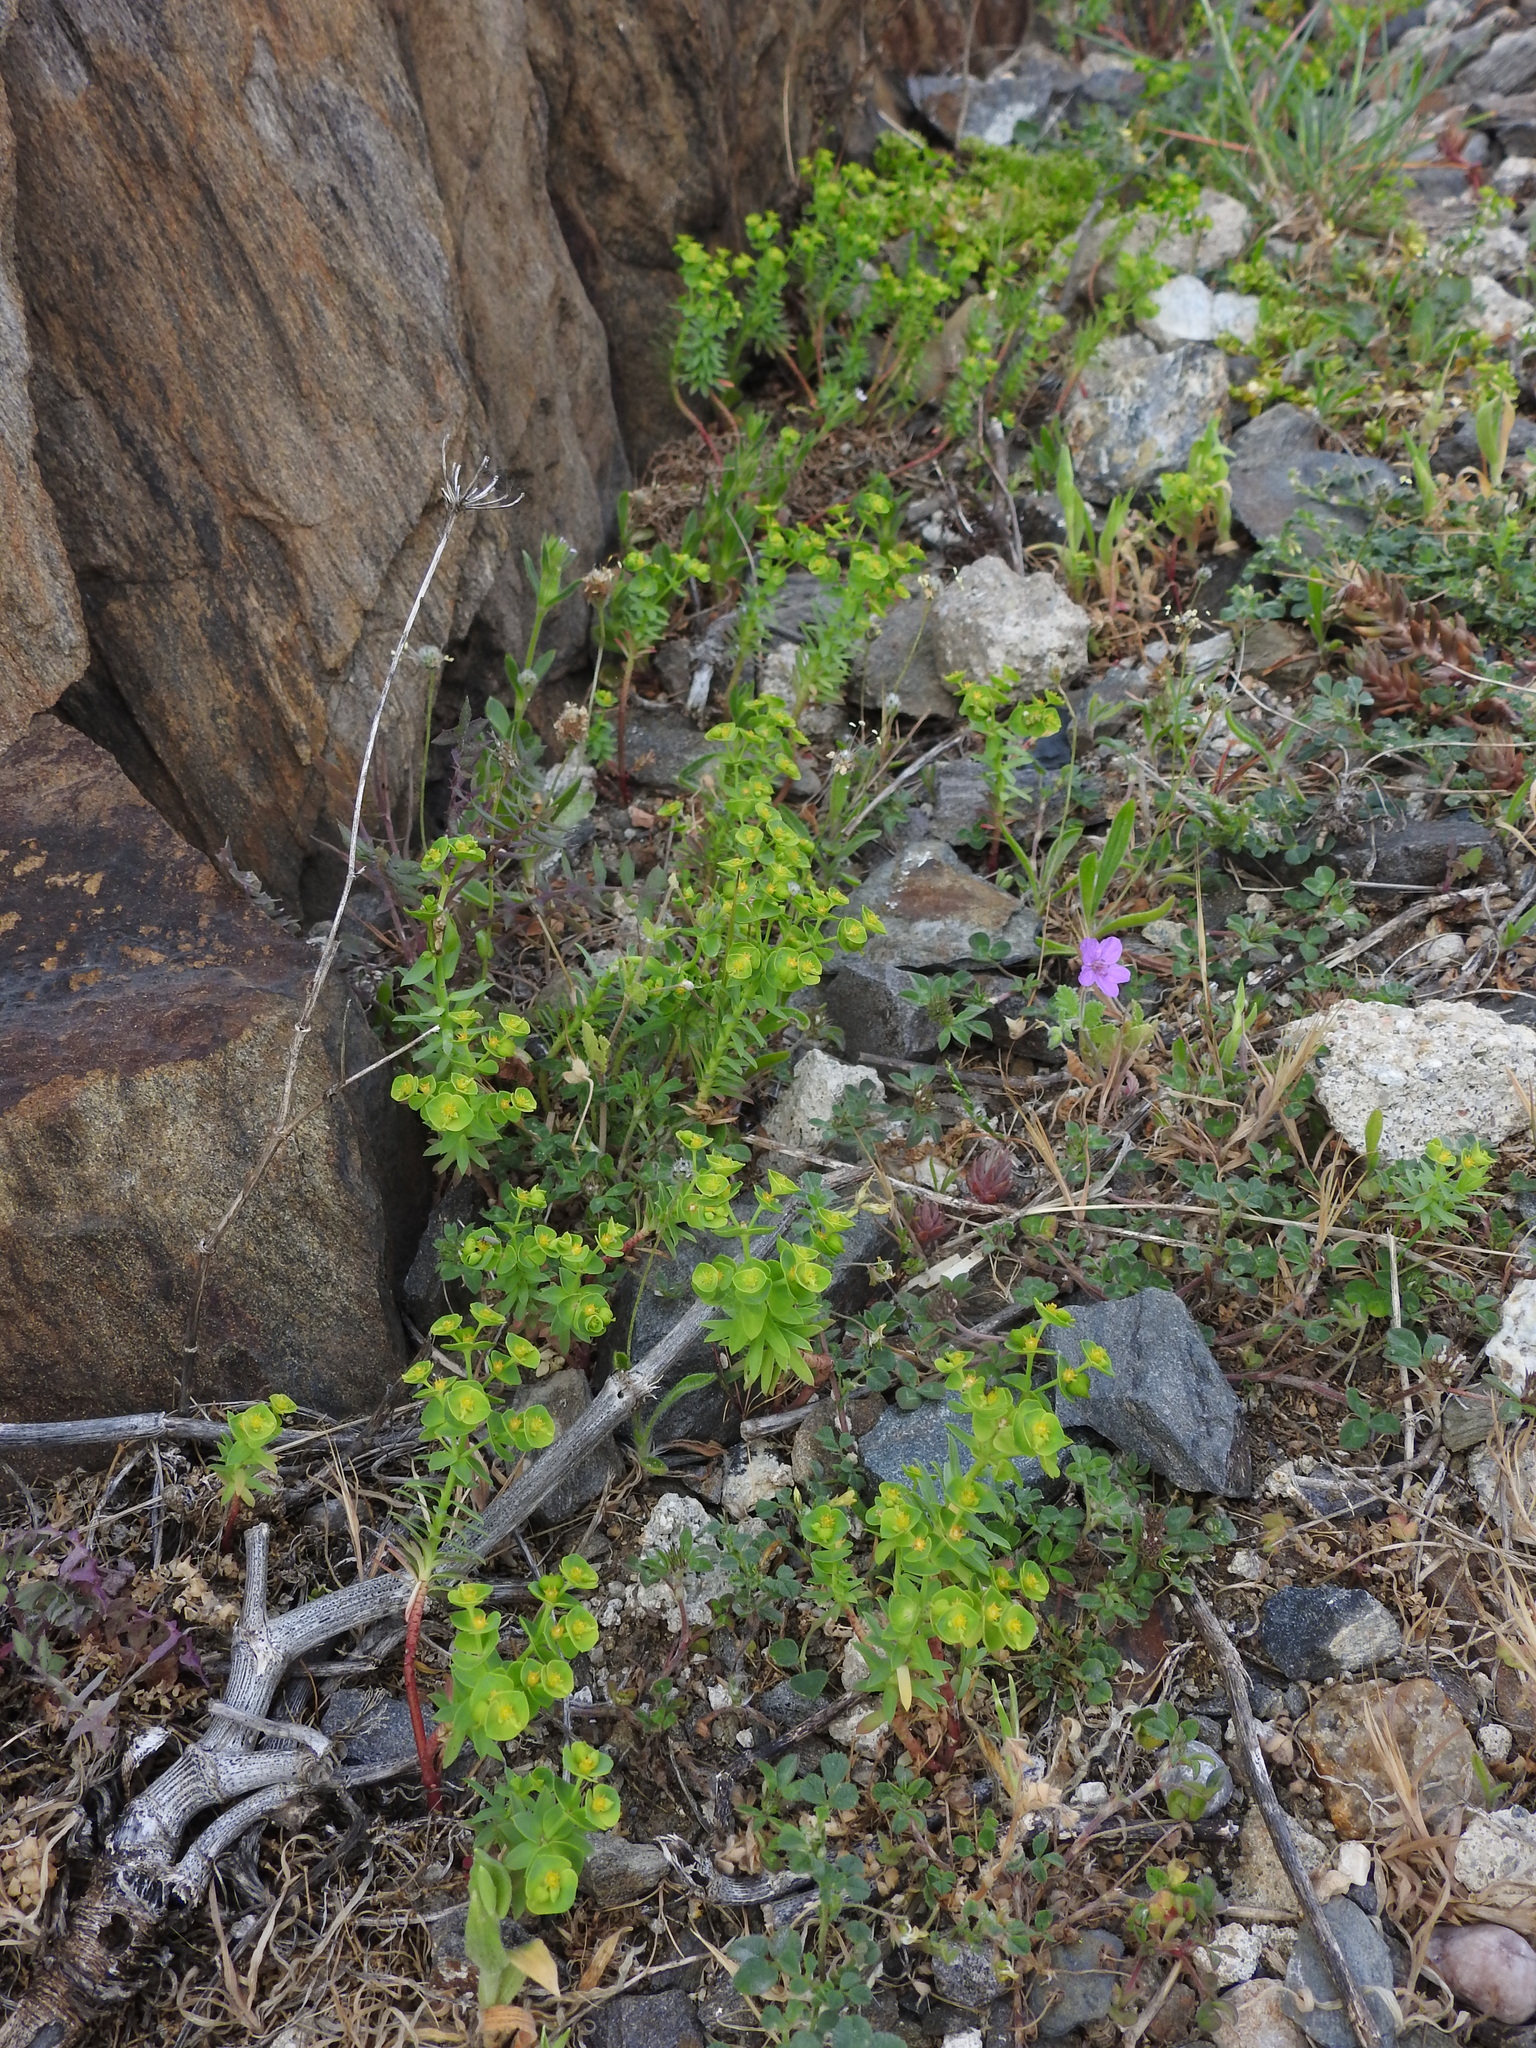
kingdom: Plantae
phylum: Tracheophyta
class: Magnoliopsida
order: Malpighiales
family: Euphorbiaceae
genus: Euphorbia
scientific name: Euphorbia segetalis
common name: Corn spurge
